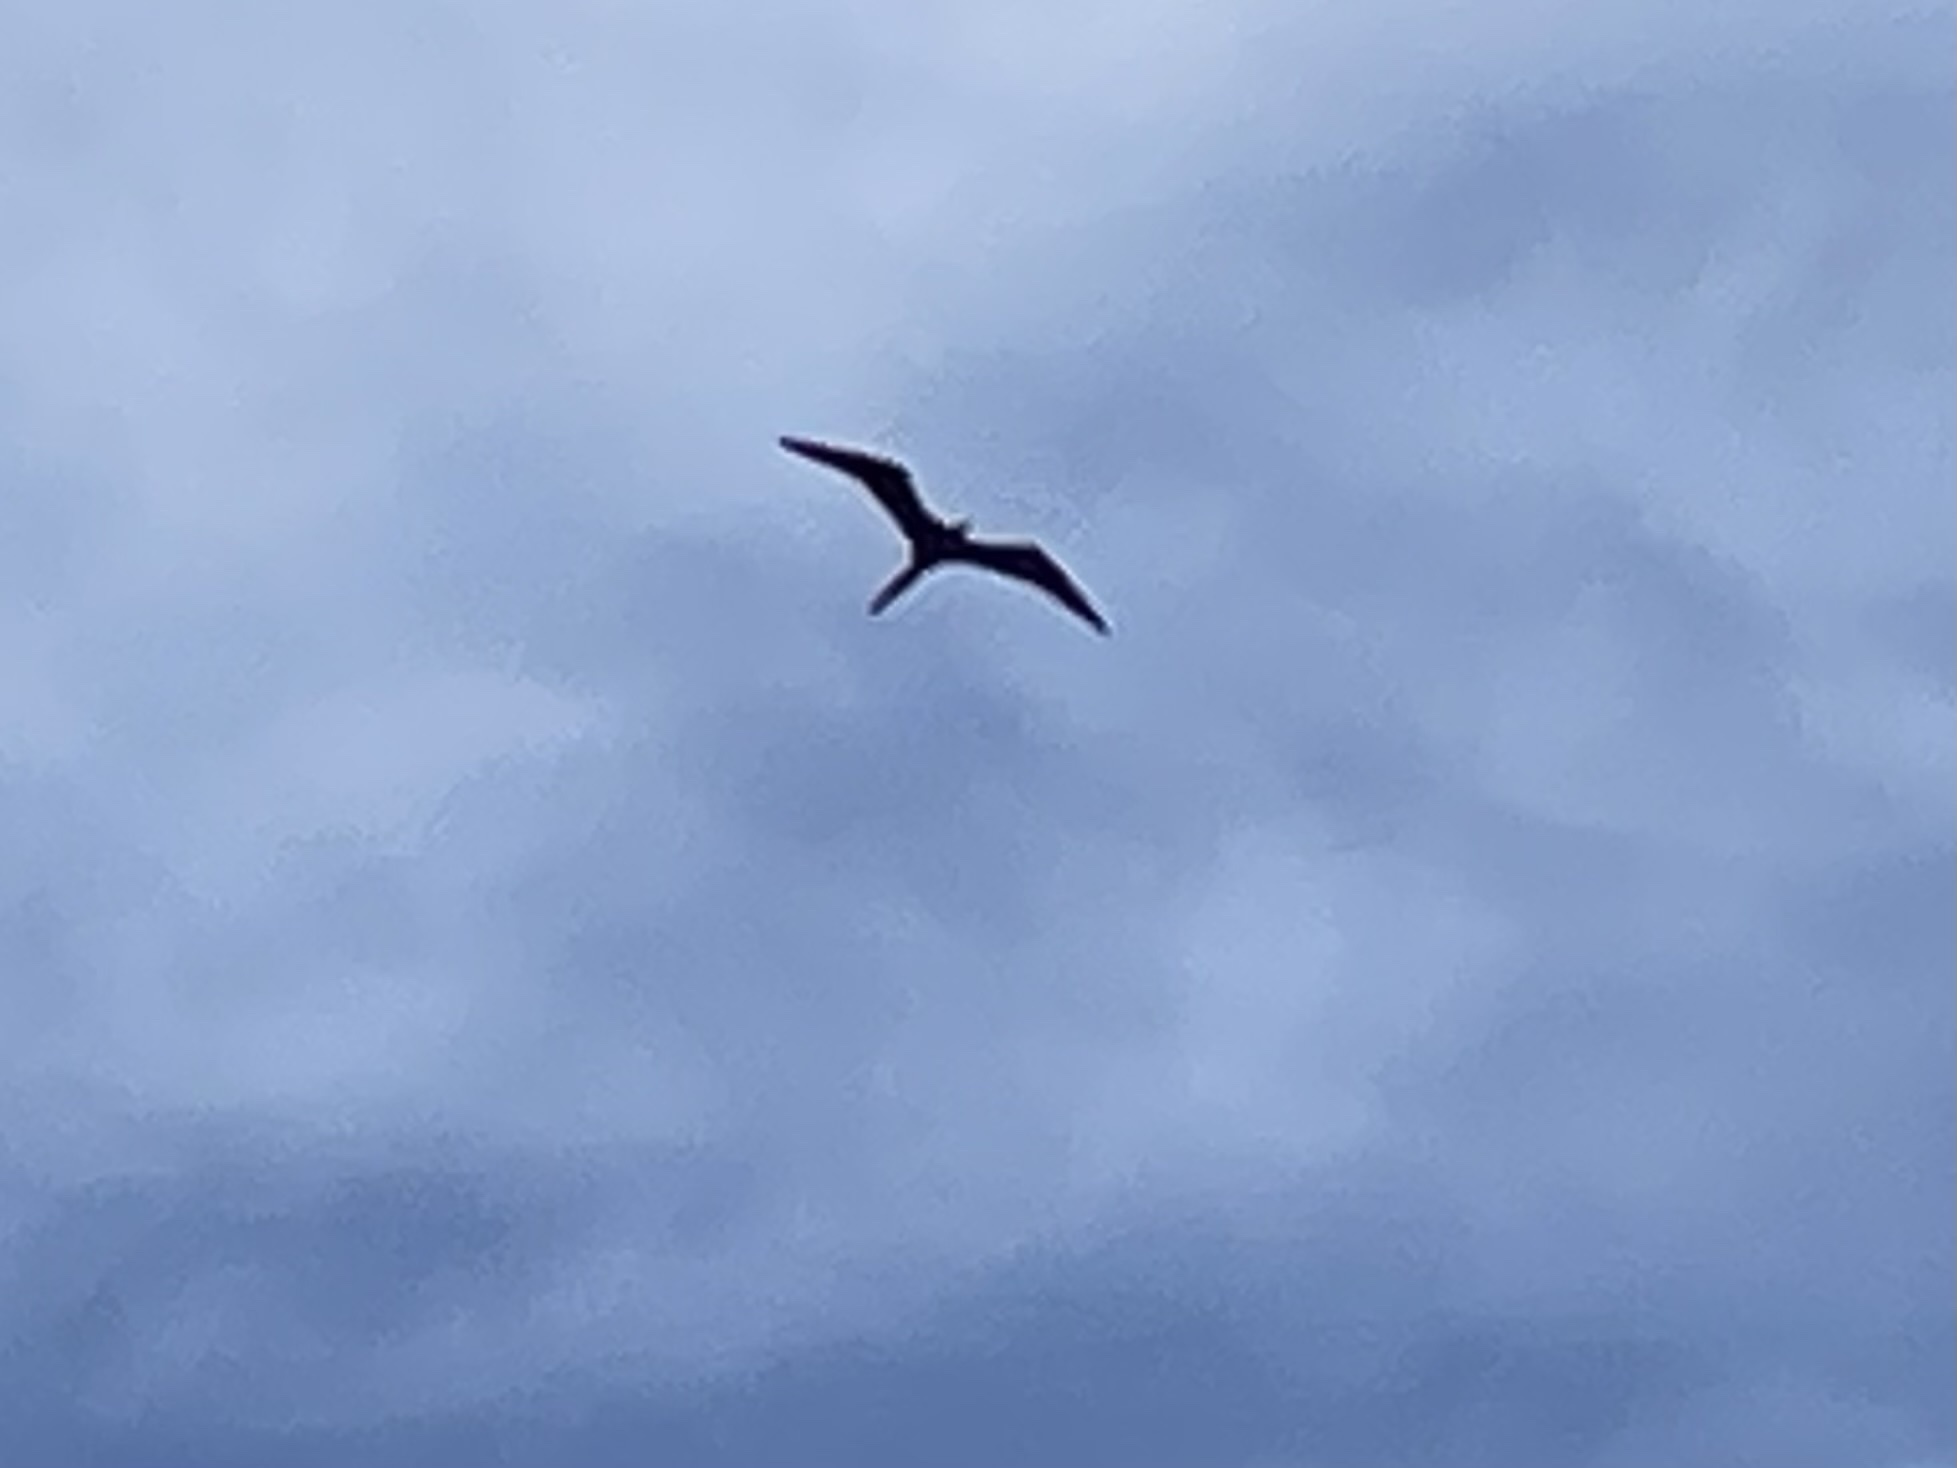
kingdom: Animalia
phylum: Chordata
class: Aves
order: Suliformes
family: Fregatidae
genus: Fregata
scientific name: Fregata magnificens
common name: Magnificent frigatebird
